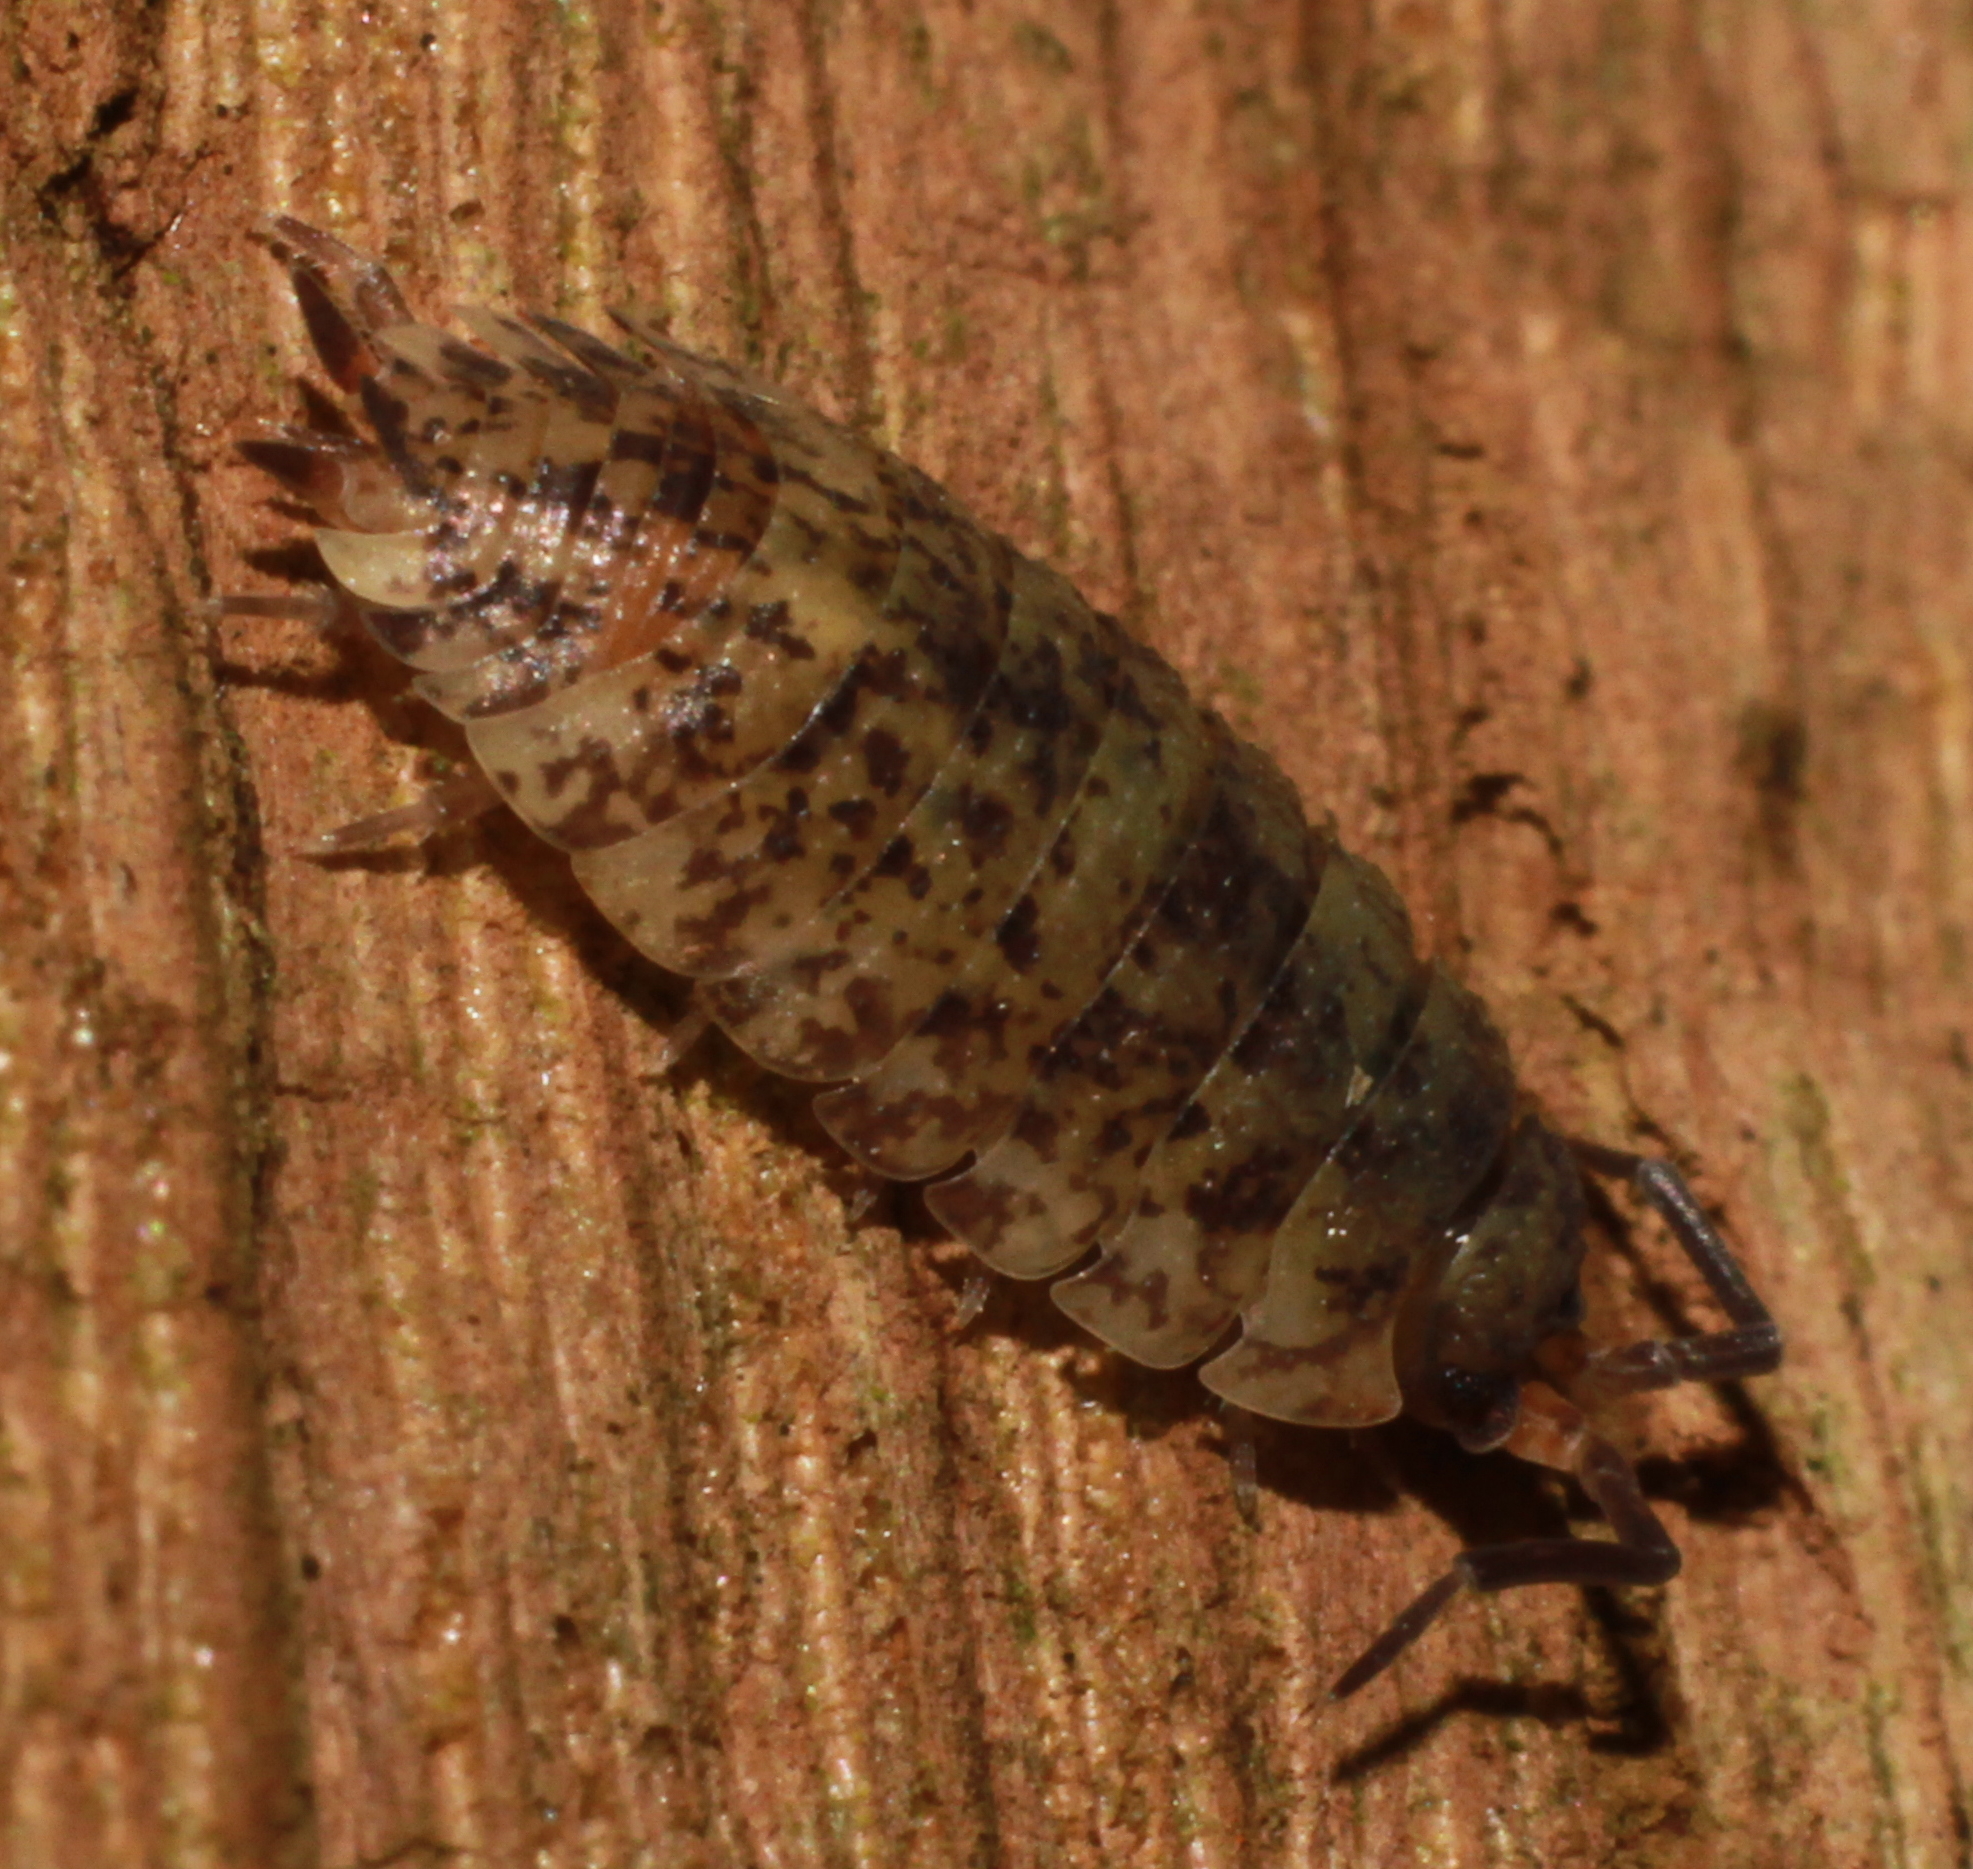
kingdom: Animalia
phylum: Arthropoda
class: Malacostraca
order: Isopoda
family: Porcellionidae
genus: Porcellio
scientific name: Porcellio scaber
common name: Common rough woodlouse
